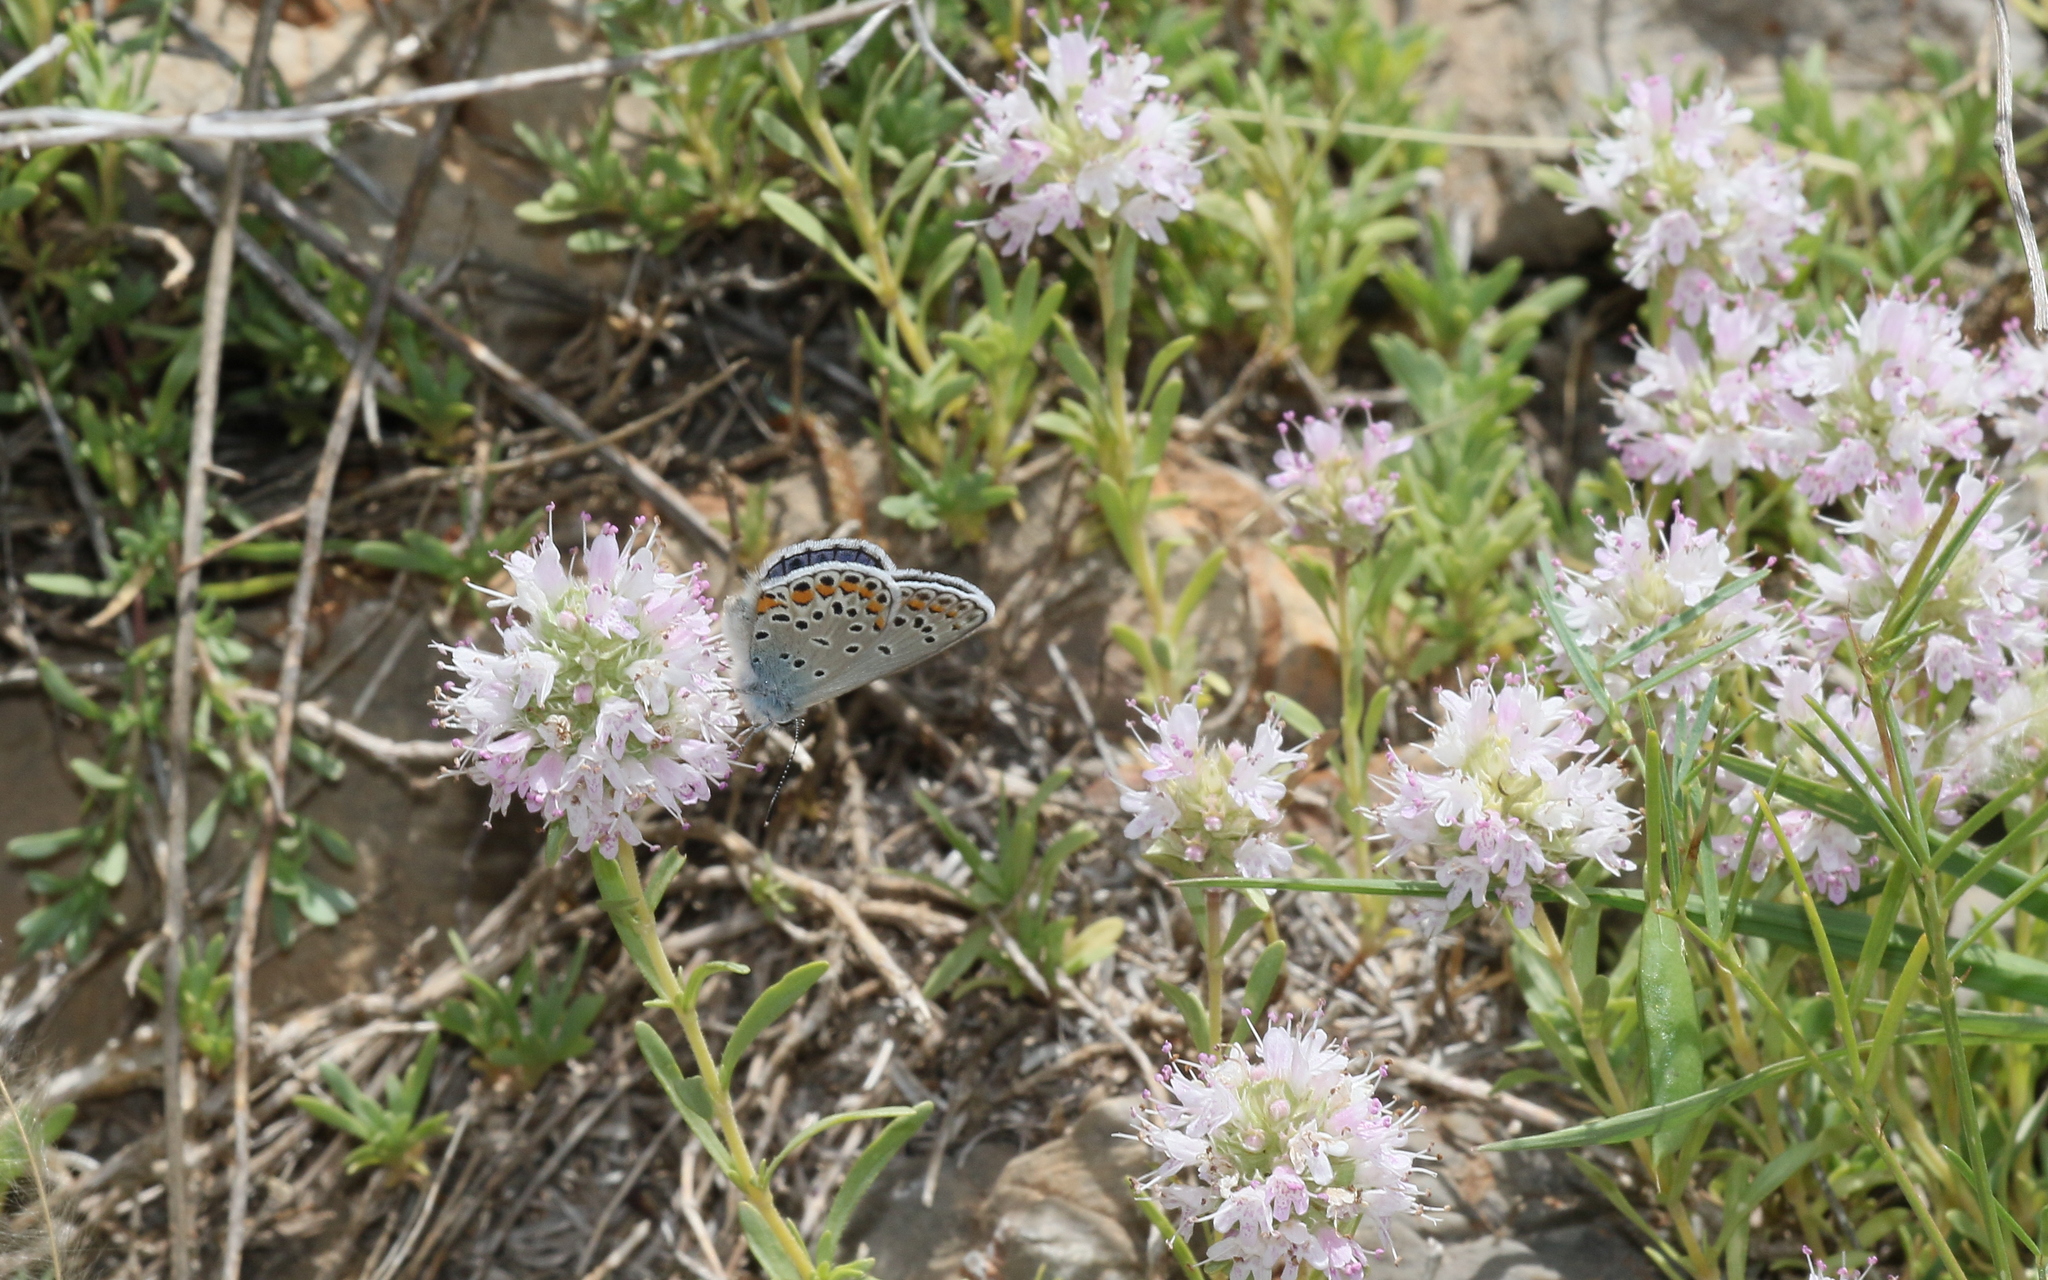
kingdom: Animalia
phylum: Arthropoda
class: Insecta
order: Lepidoptera
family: Lycaenidae
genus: Plebejus
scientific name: Plebejus pylaon
